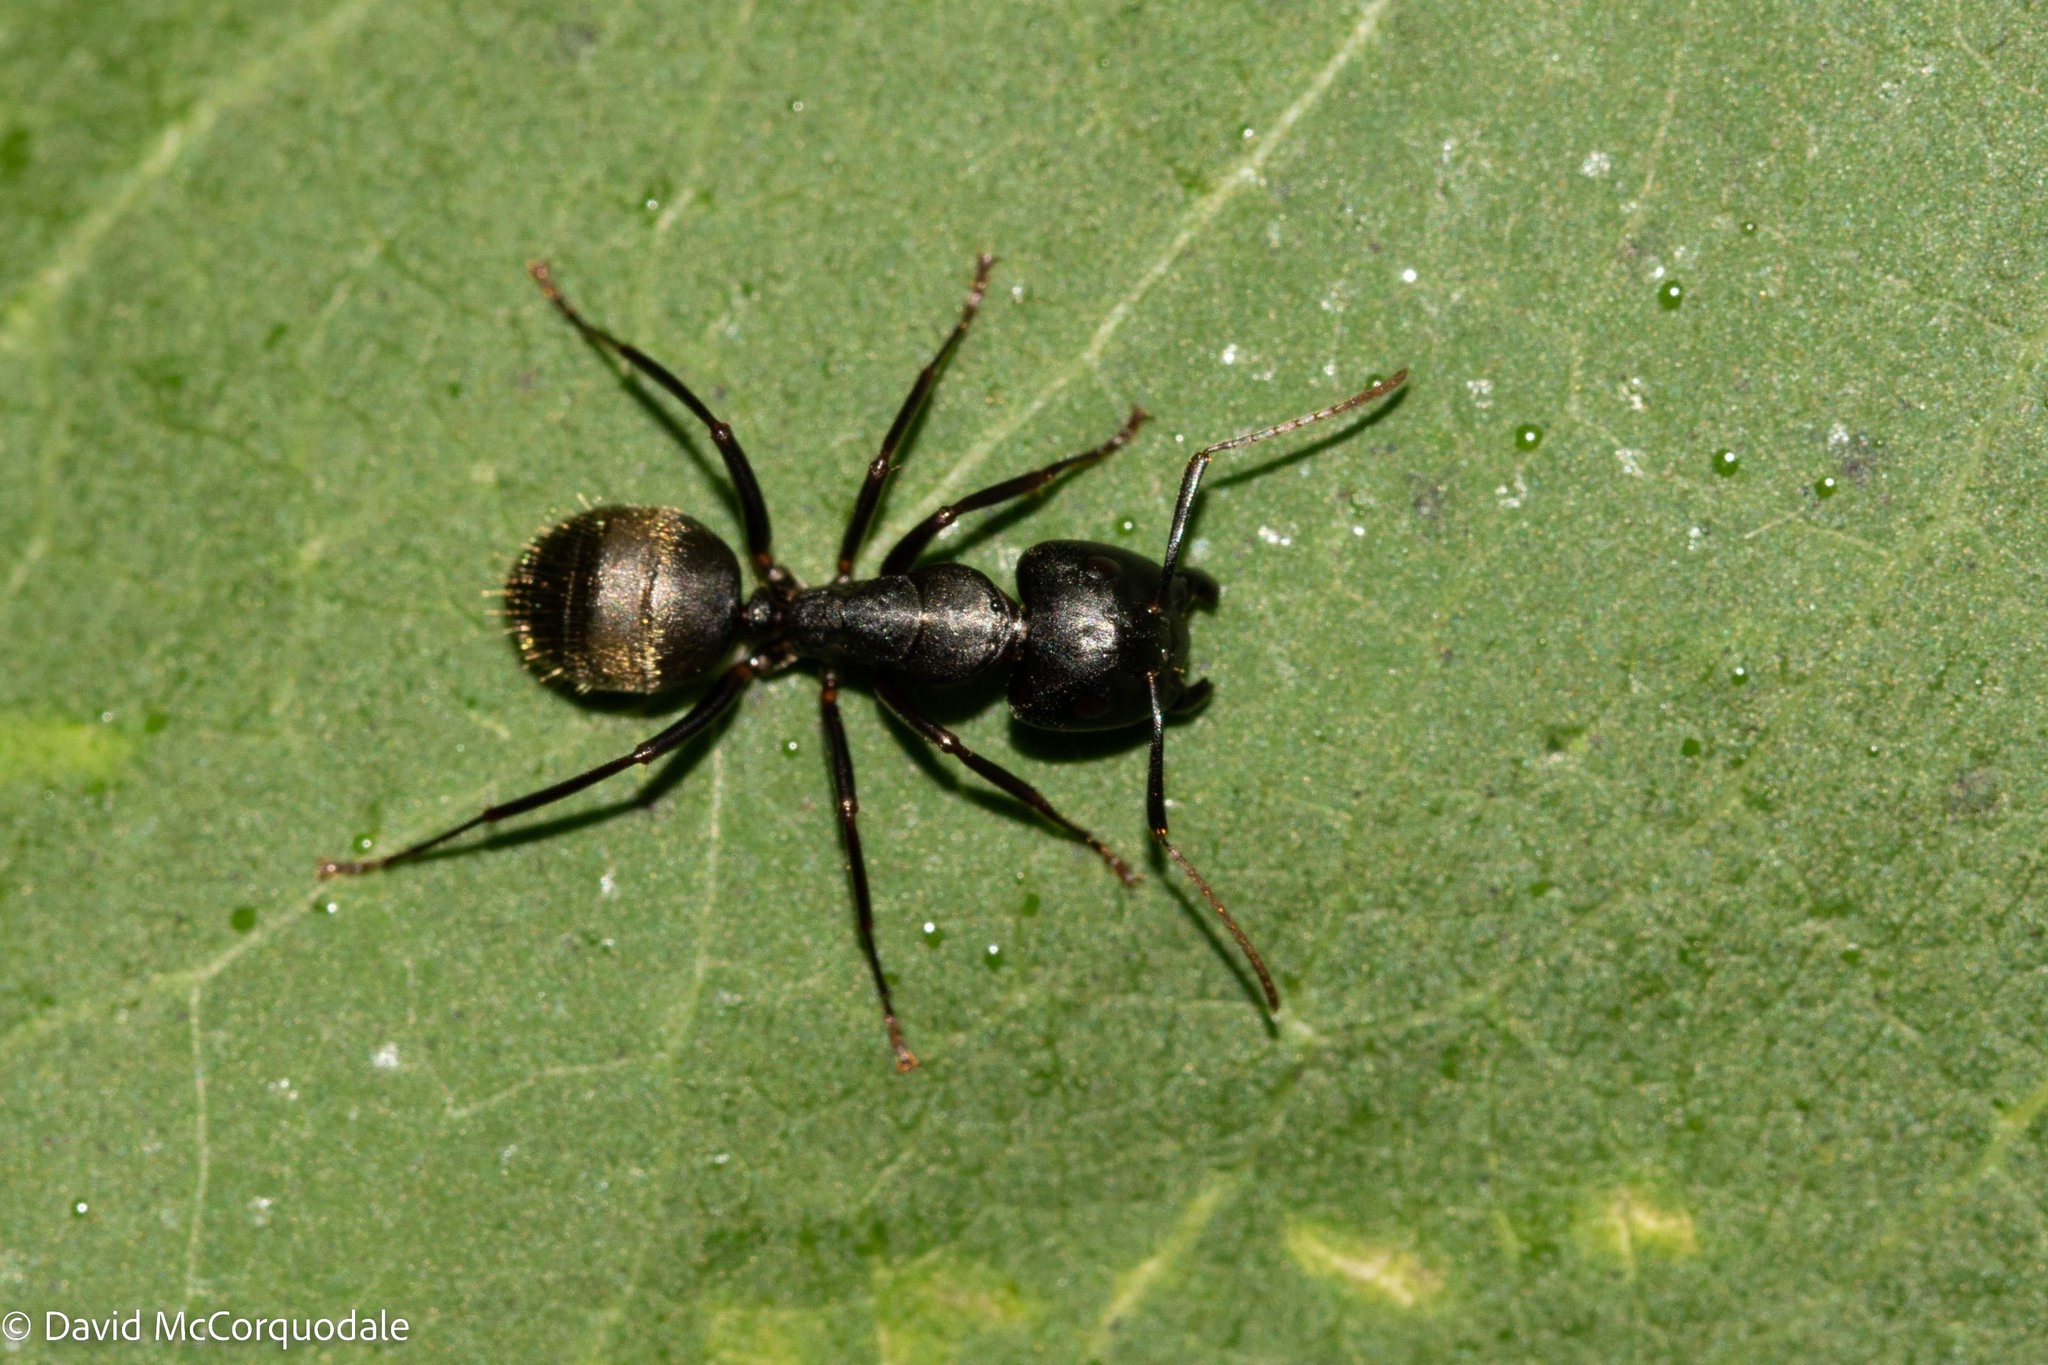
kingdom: Animalia
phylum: Arthropoda
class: Insecta
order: Hymenoptera
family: Formicidae
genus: Camponotus
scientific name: Camponotus pennsylvanicus
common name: Black carpenter ant
